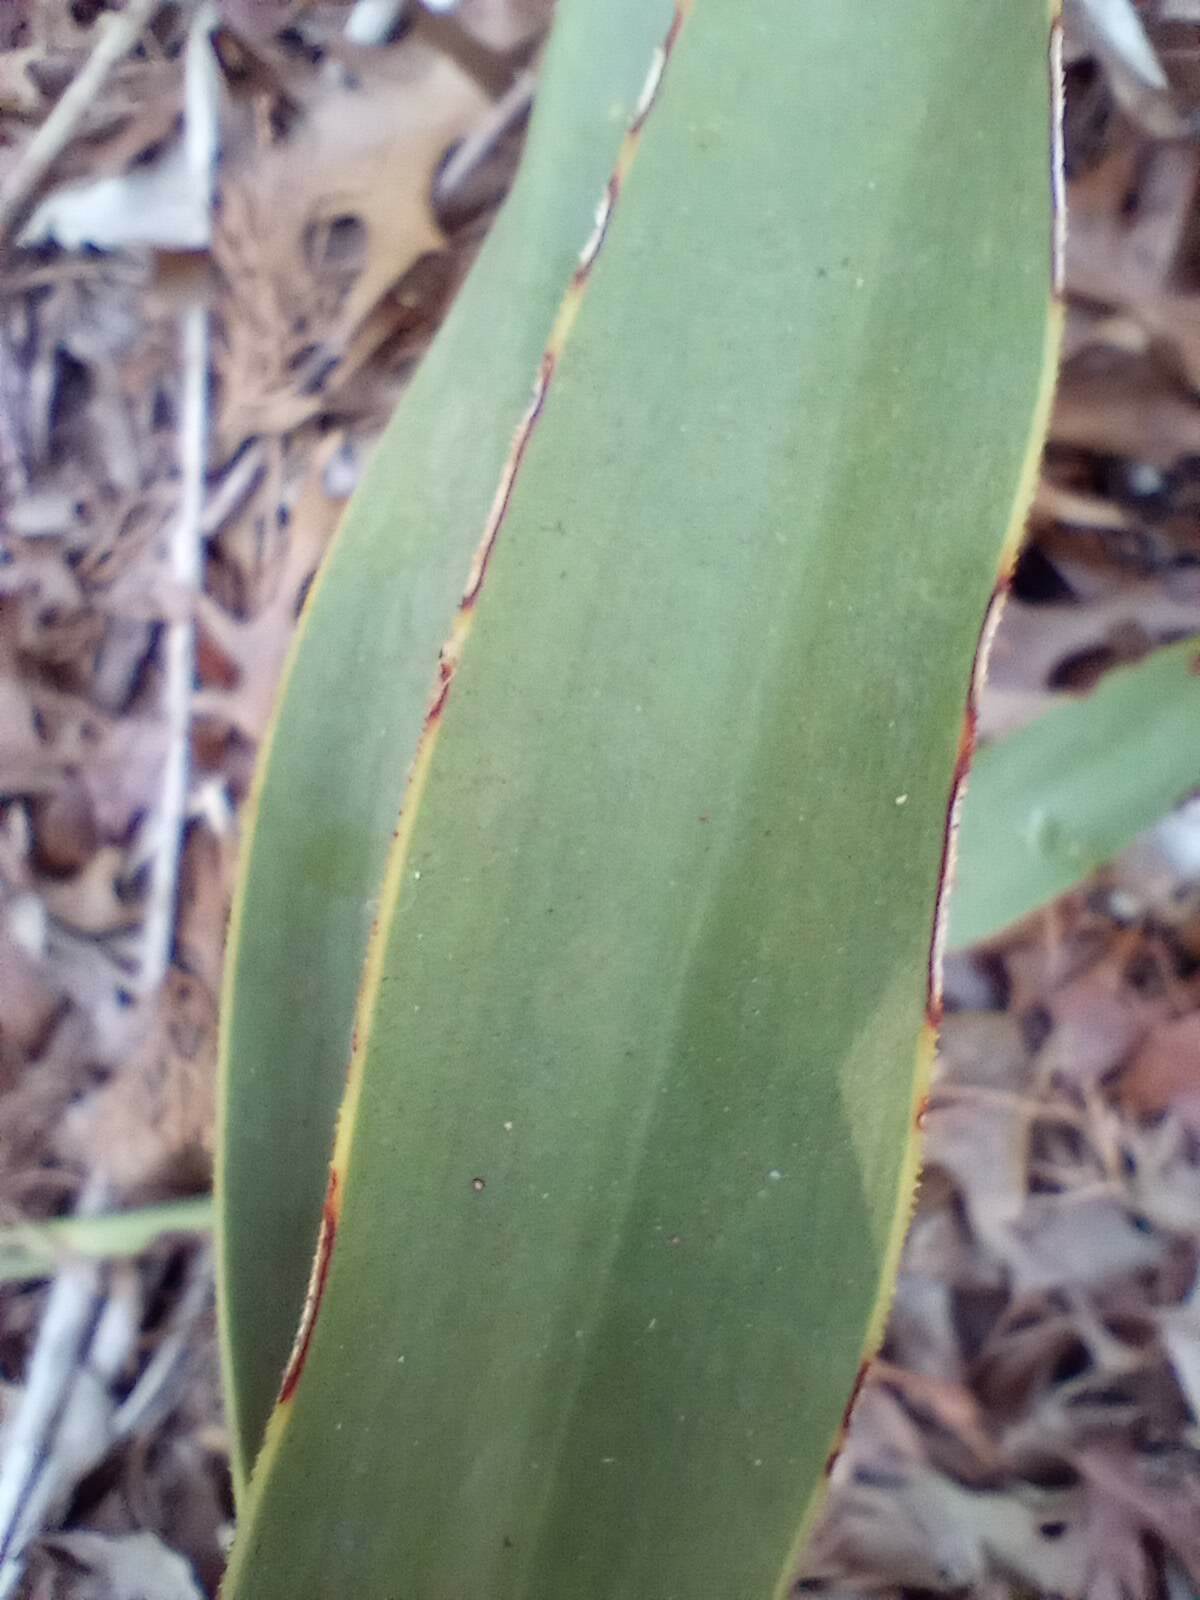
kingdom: Plantae
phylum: Tracheophyta
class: Liliopsida
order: Asparagales
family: Asparagaceae
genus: Yucca
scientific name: Yucca rupicola
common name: Twisted-leaf spanish-dagger
